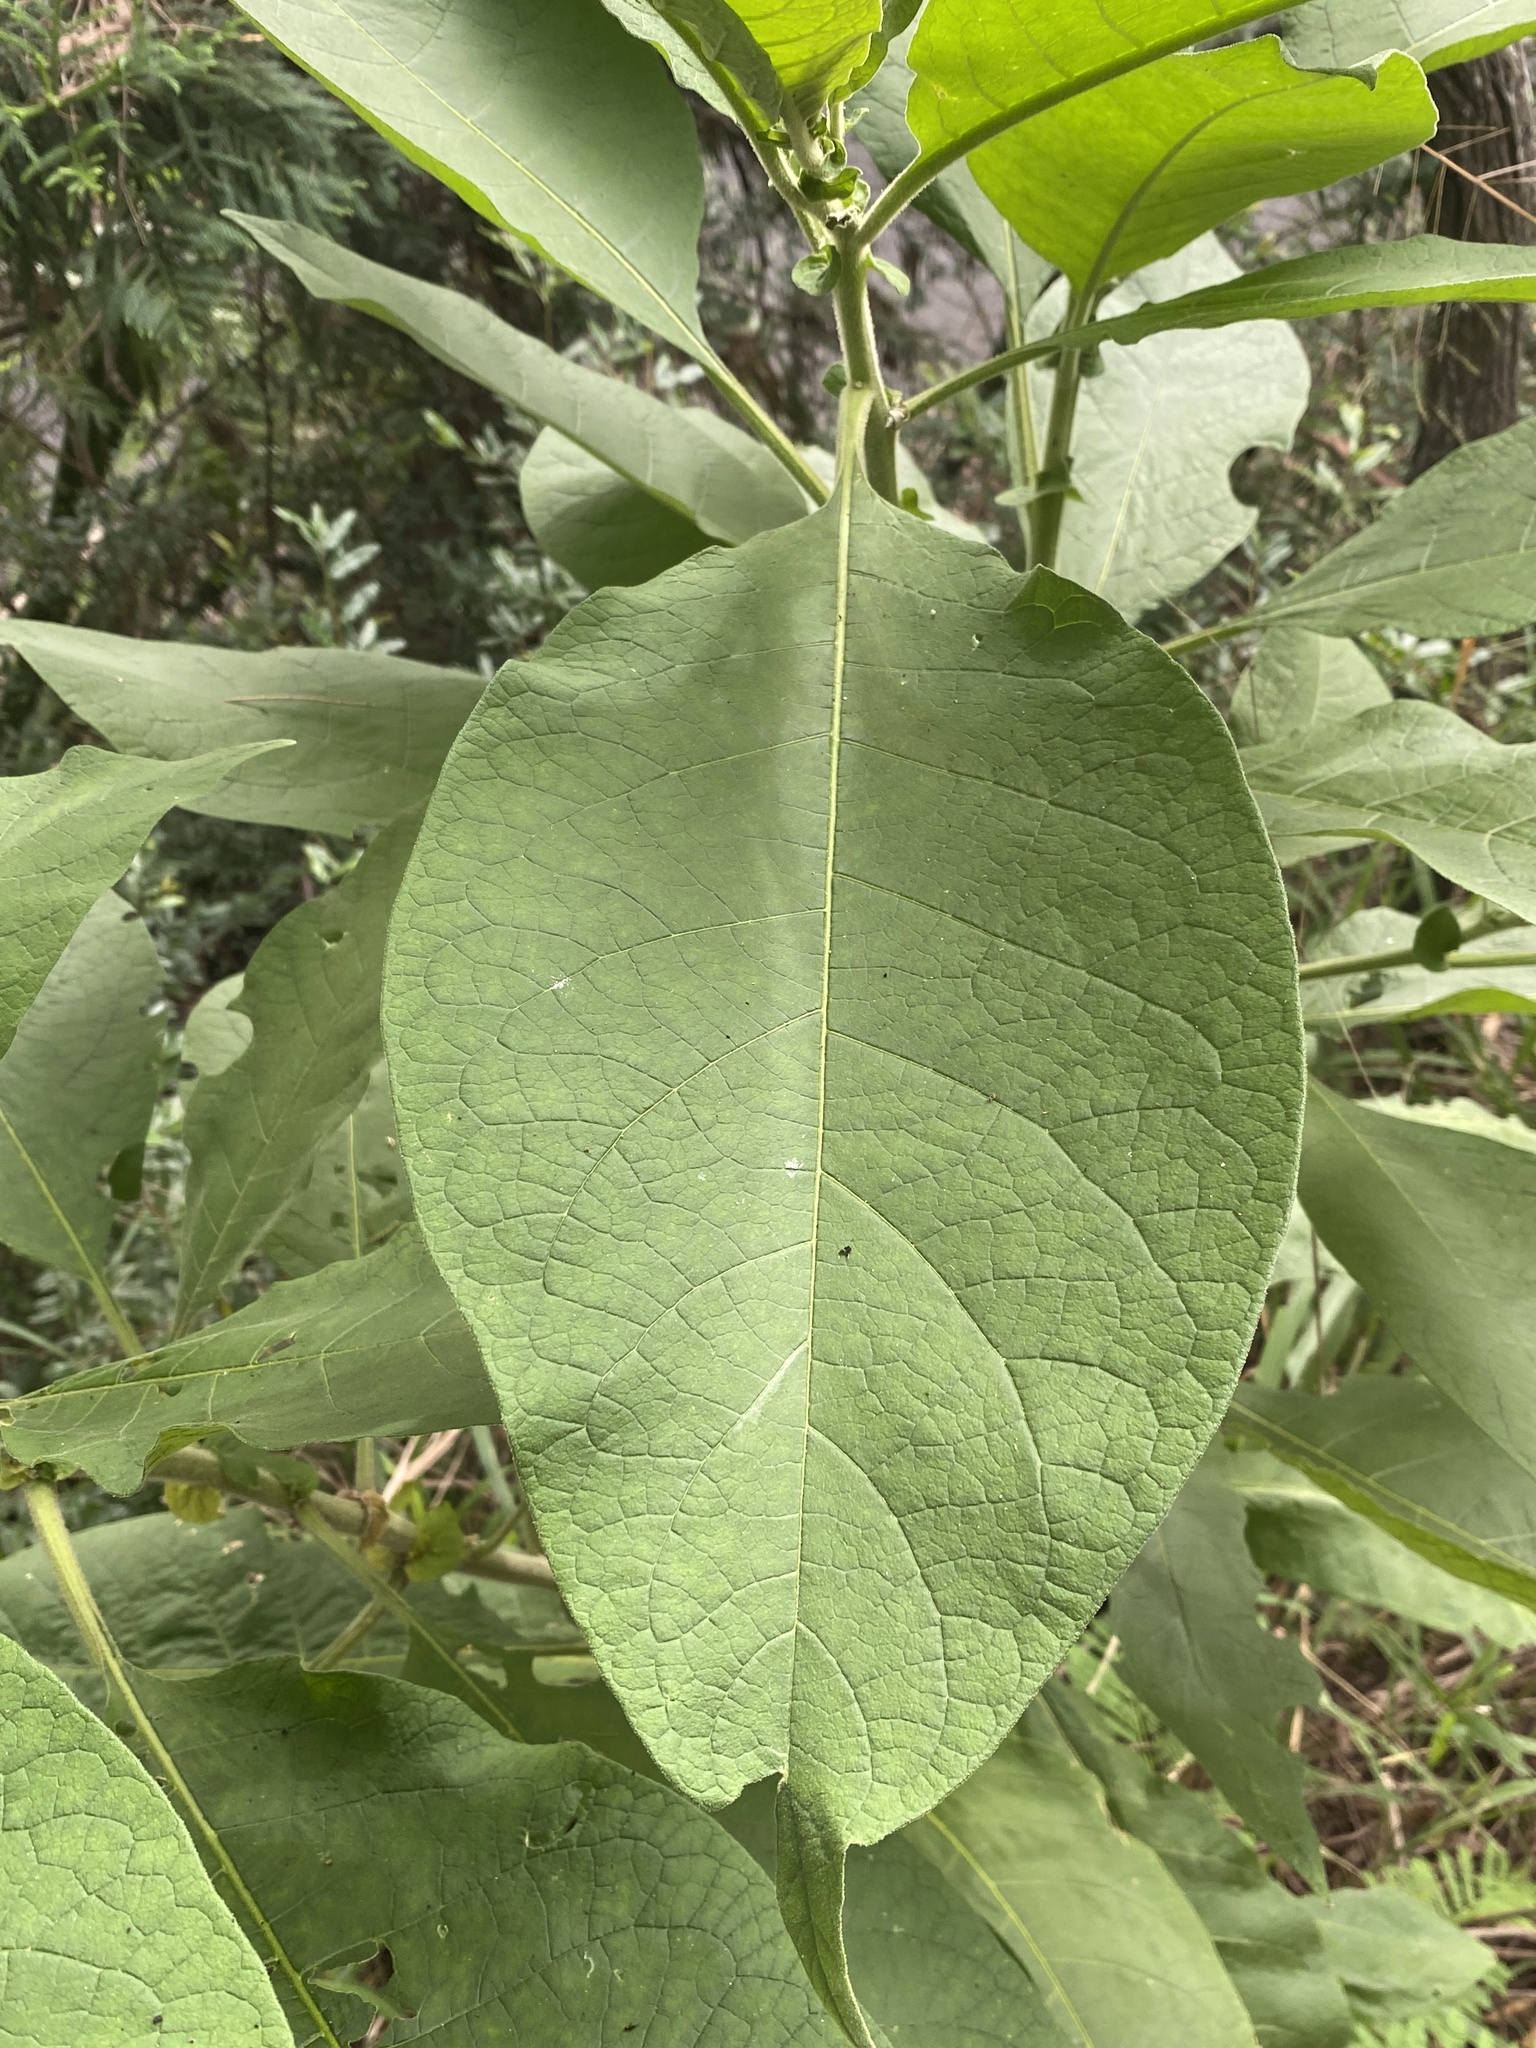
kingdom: Plantae
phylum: Tracheophyta
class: Magnoliopsida
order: Solanales
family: Solanaceae
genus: Solanum
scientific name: Solanum mauritianum
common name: Earleaf nightshade
